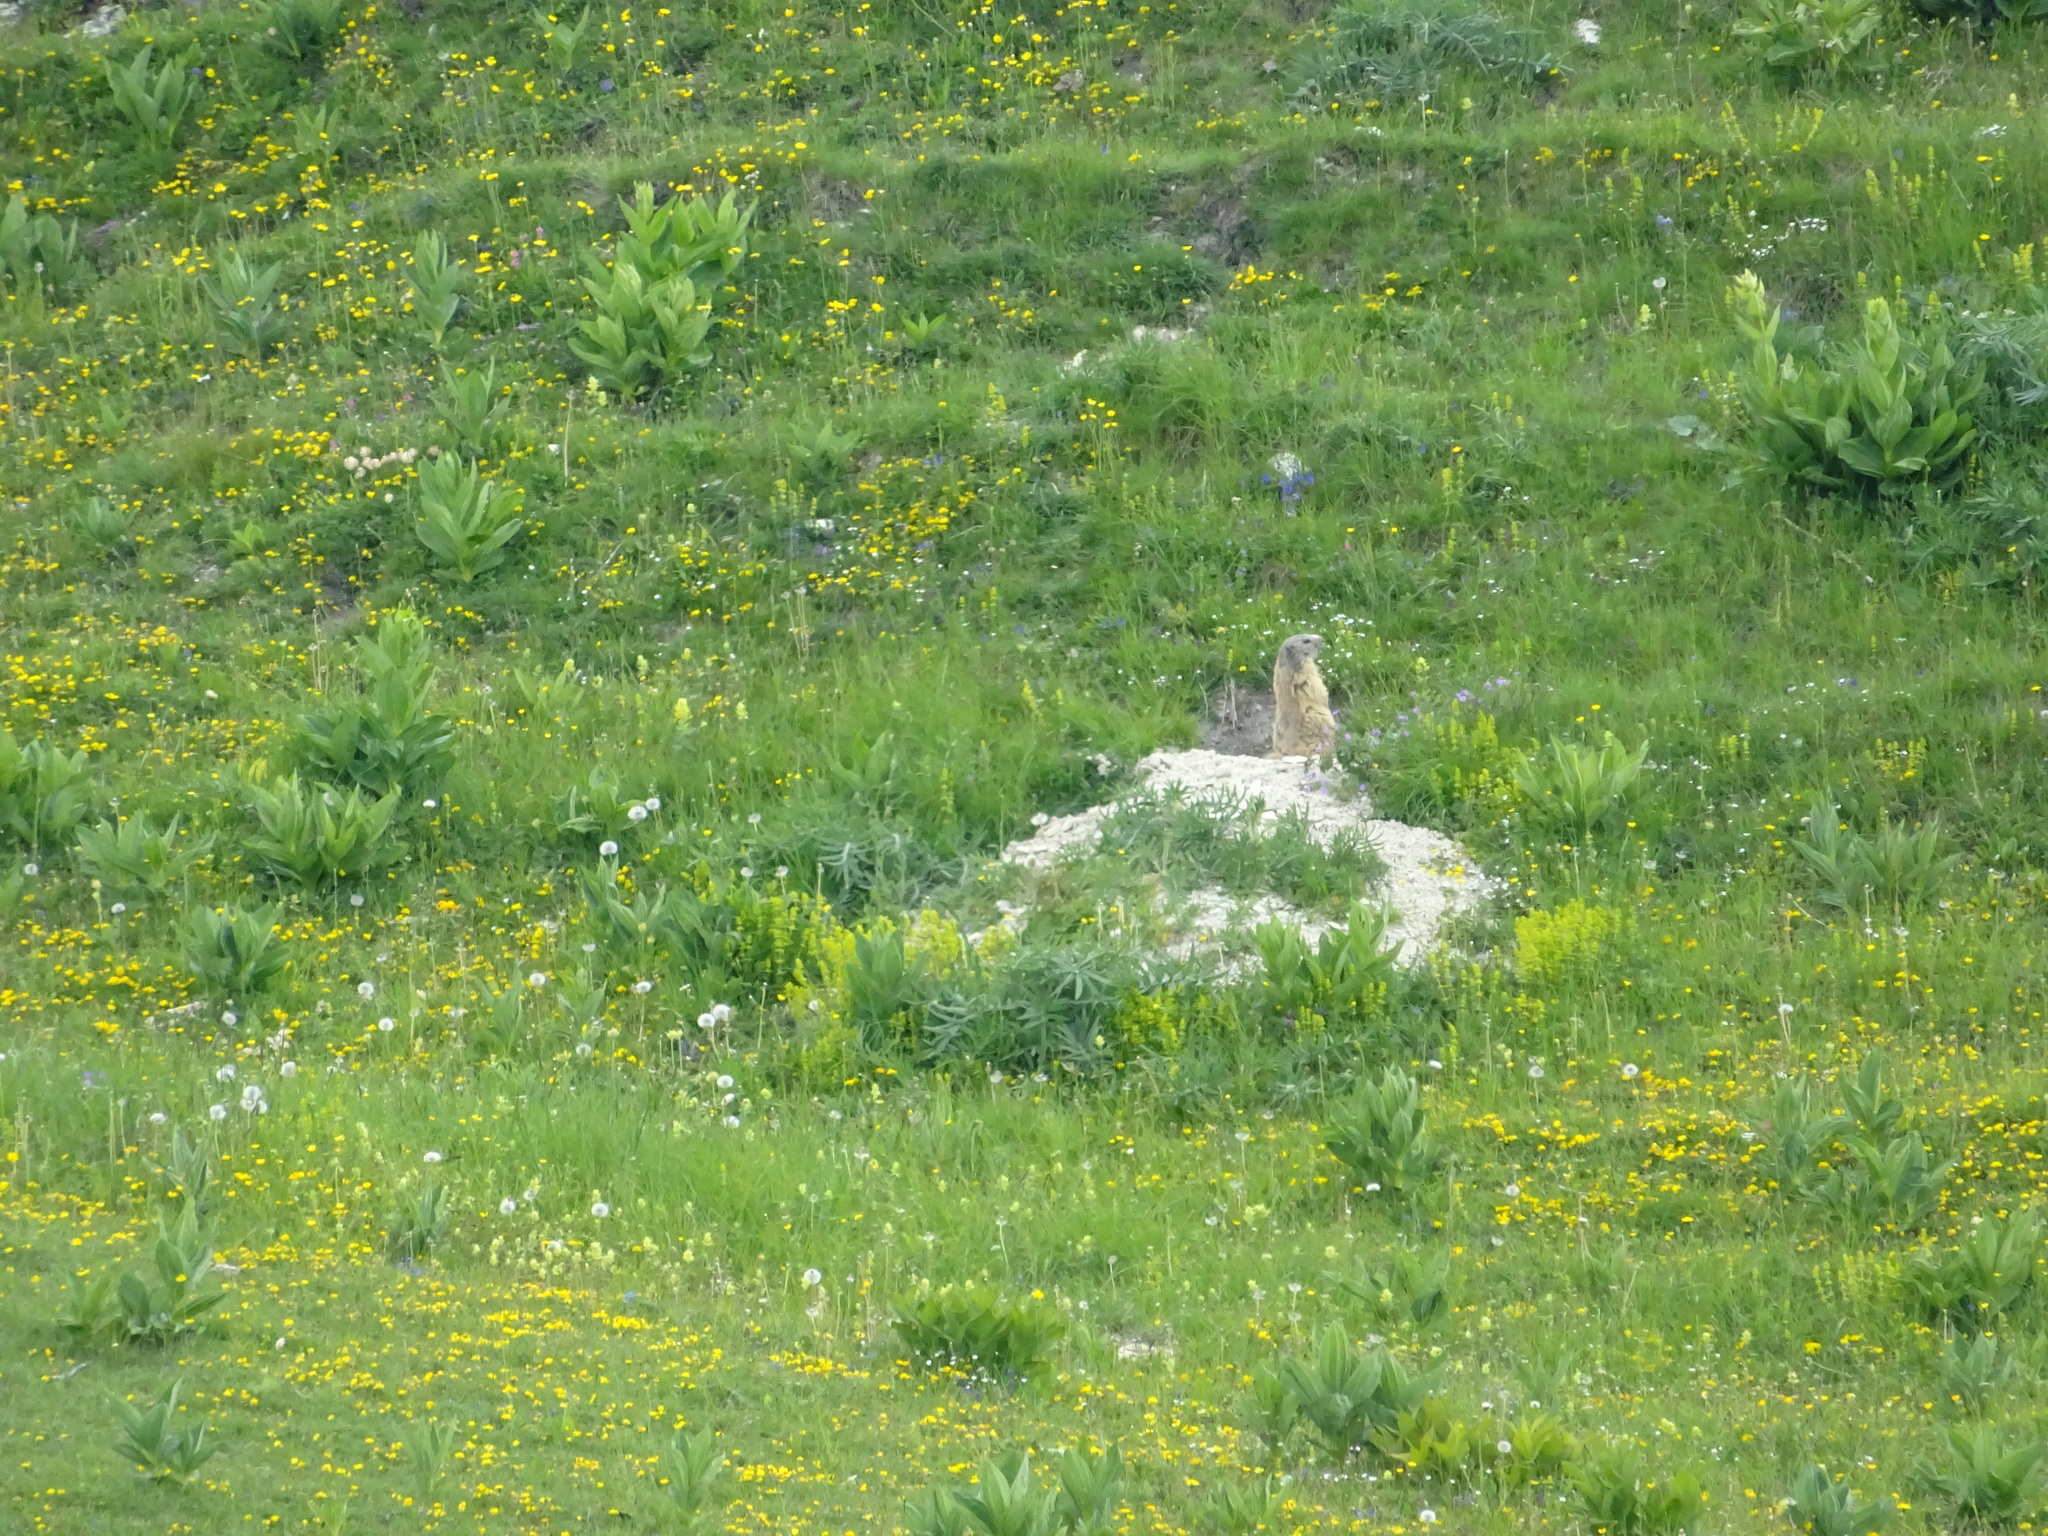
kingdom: Animalia
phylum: Chordata
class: Mammalia
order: Rodentia
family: Sciuridae
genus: Marmota
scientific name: Marmota marmota
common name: Alpine marmot
